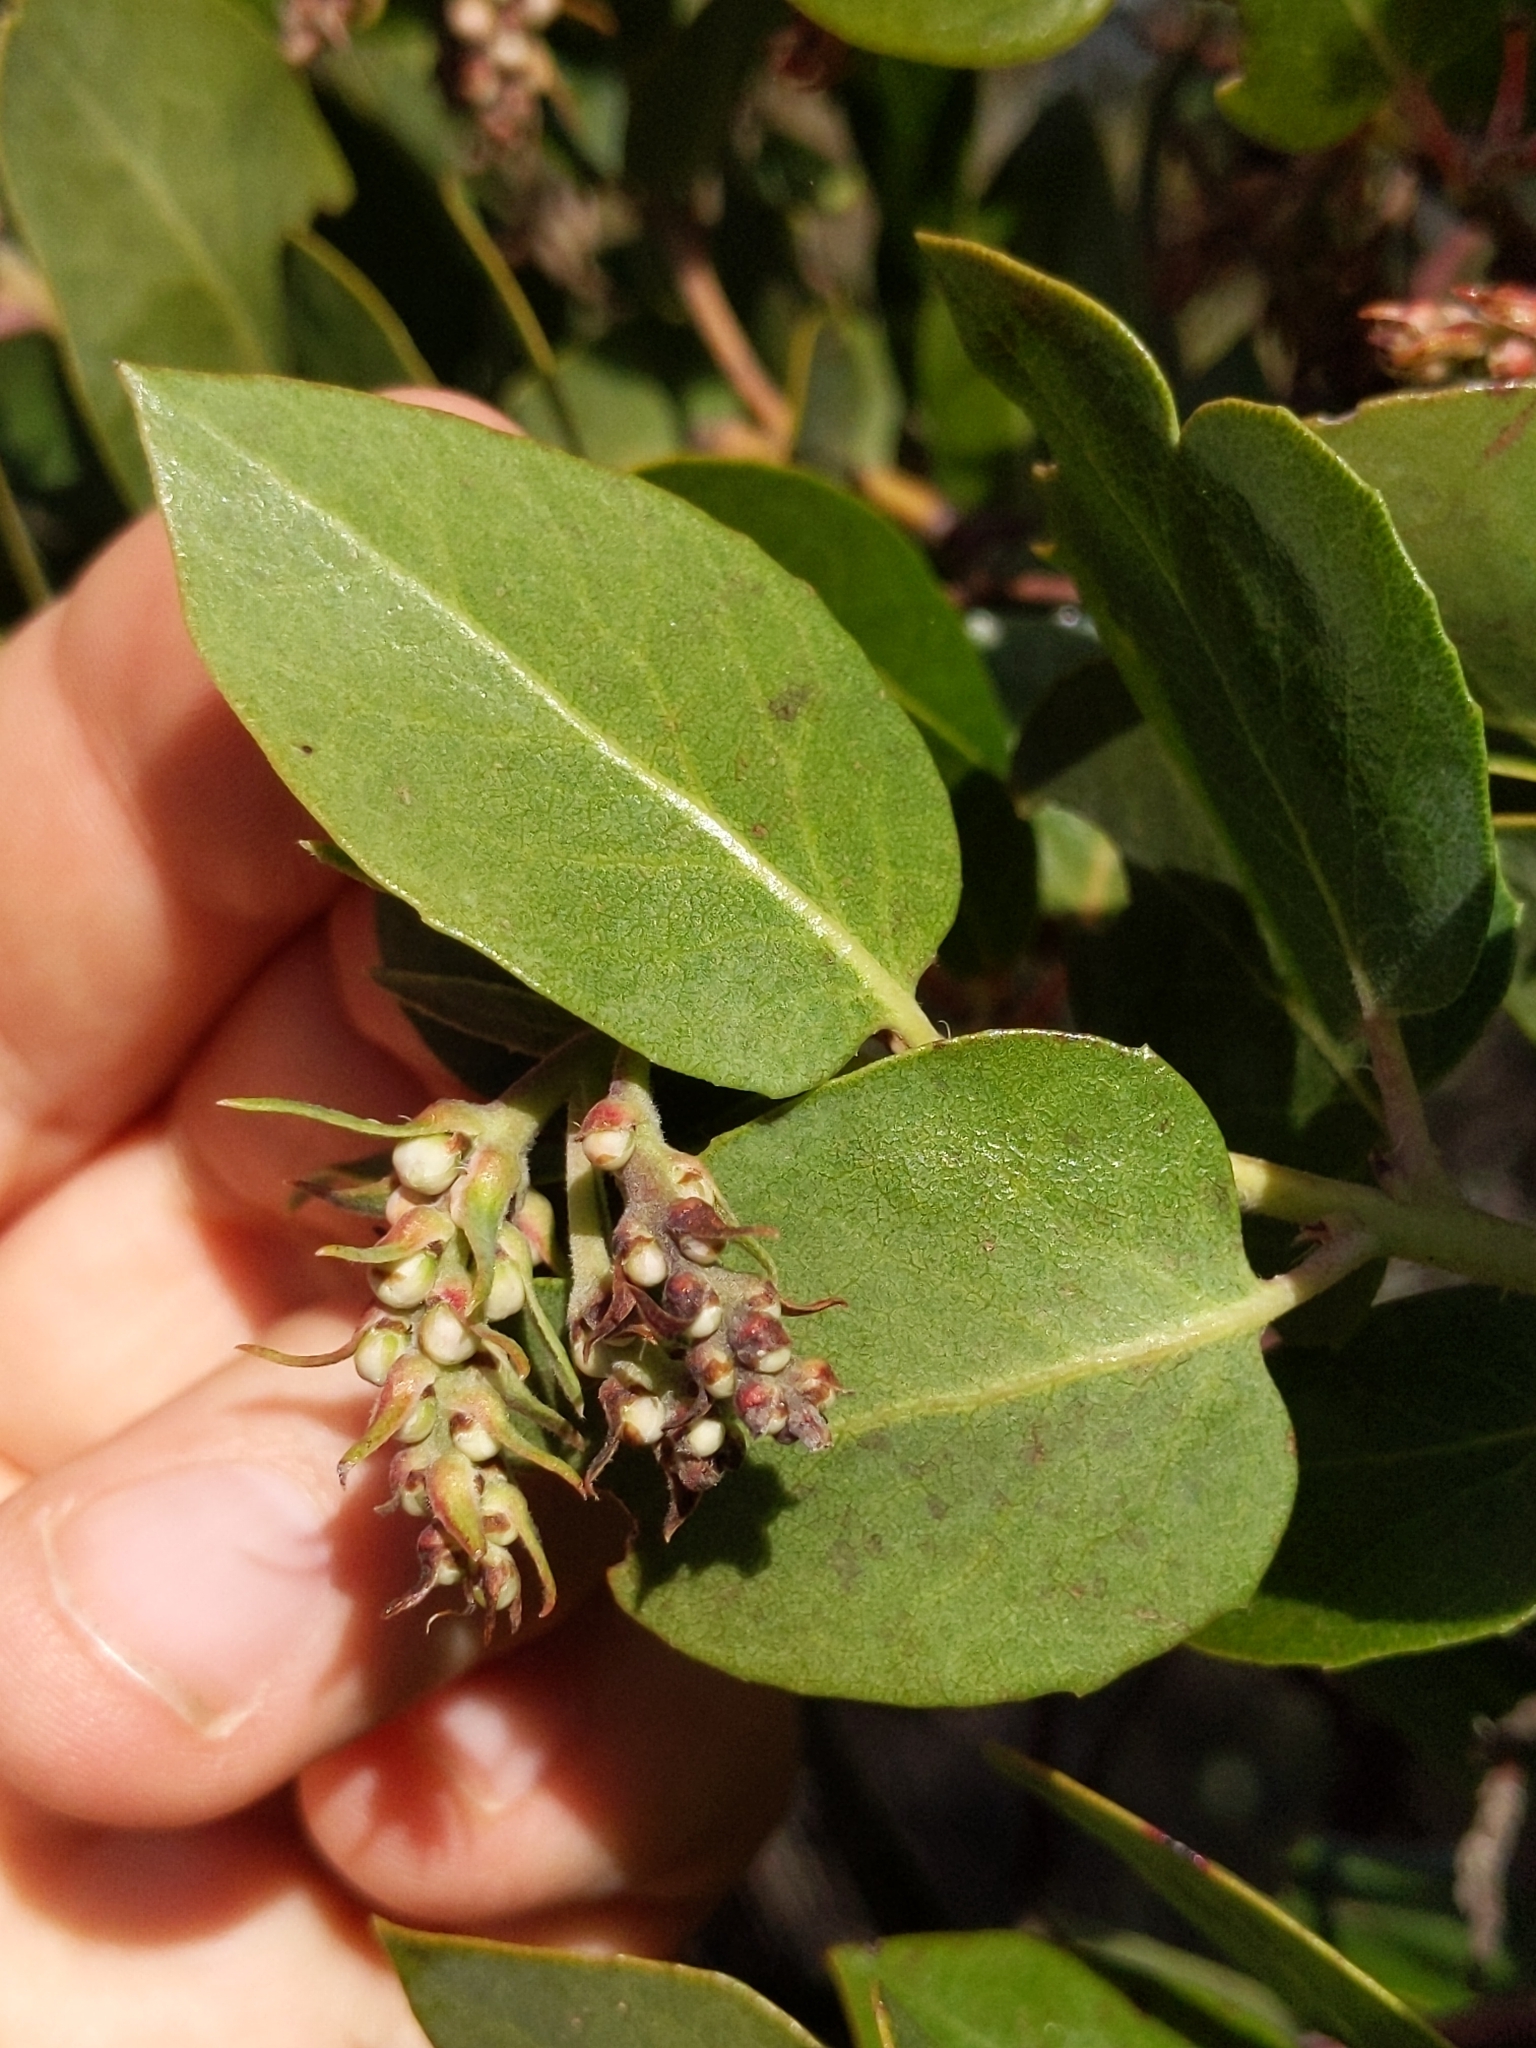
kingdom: Plantae
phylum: Tracheophyta
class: Magnoliopsida
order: Ericales
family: Ericaceae
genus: Arctostaphylos
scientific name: Arctostaphylos crustacea
